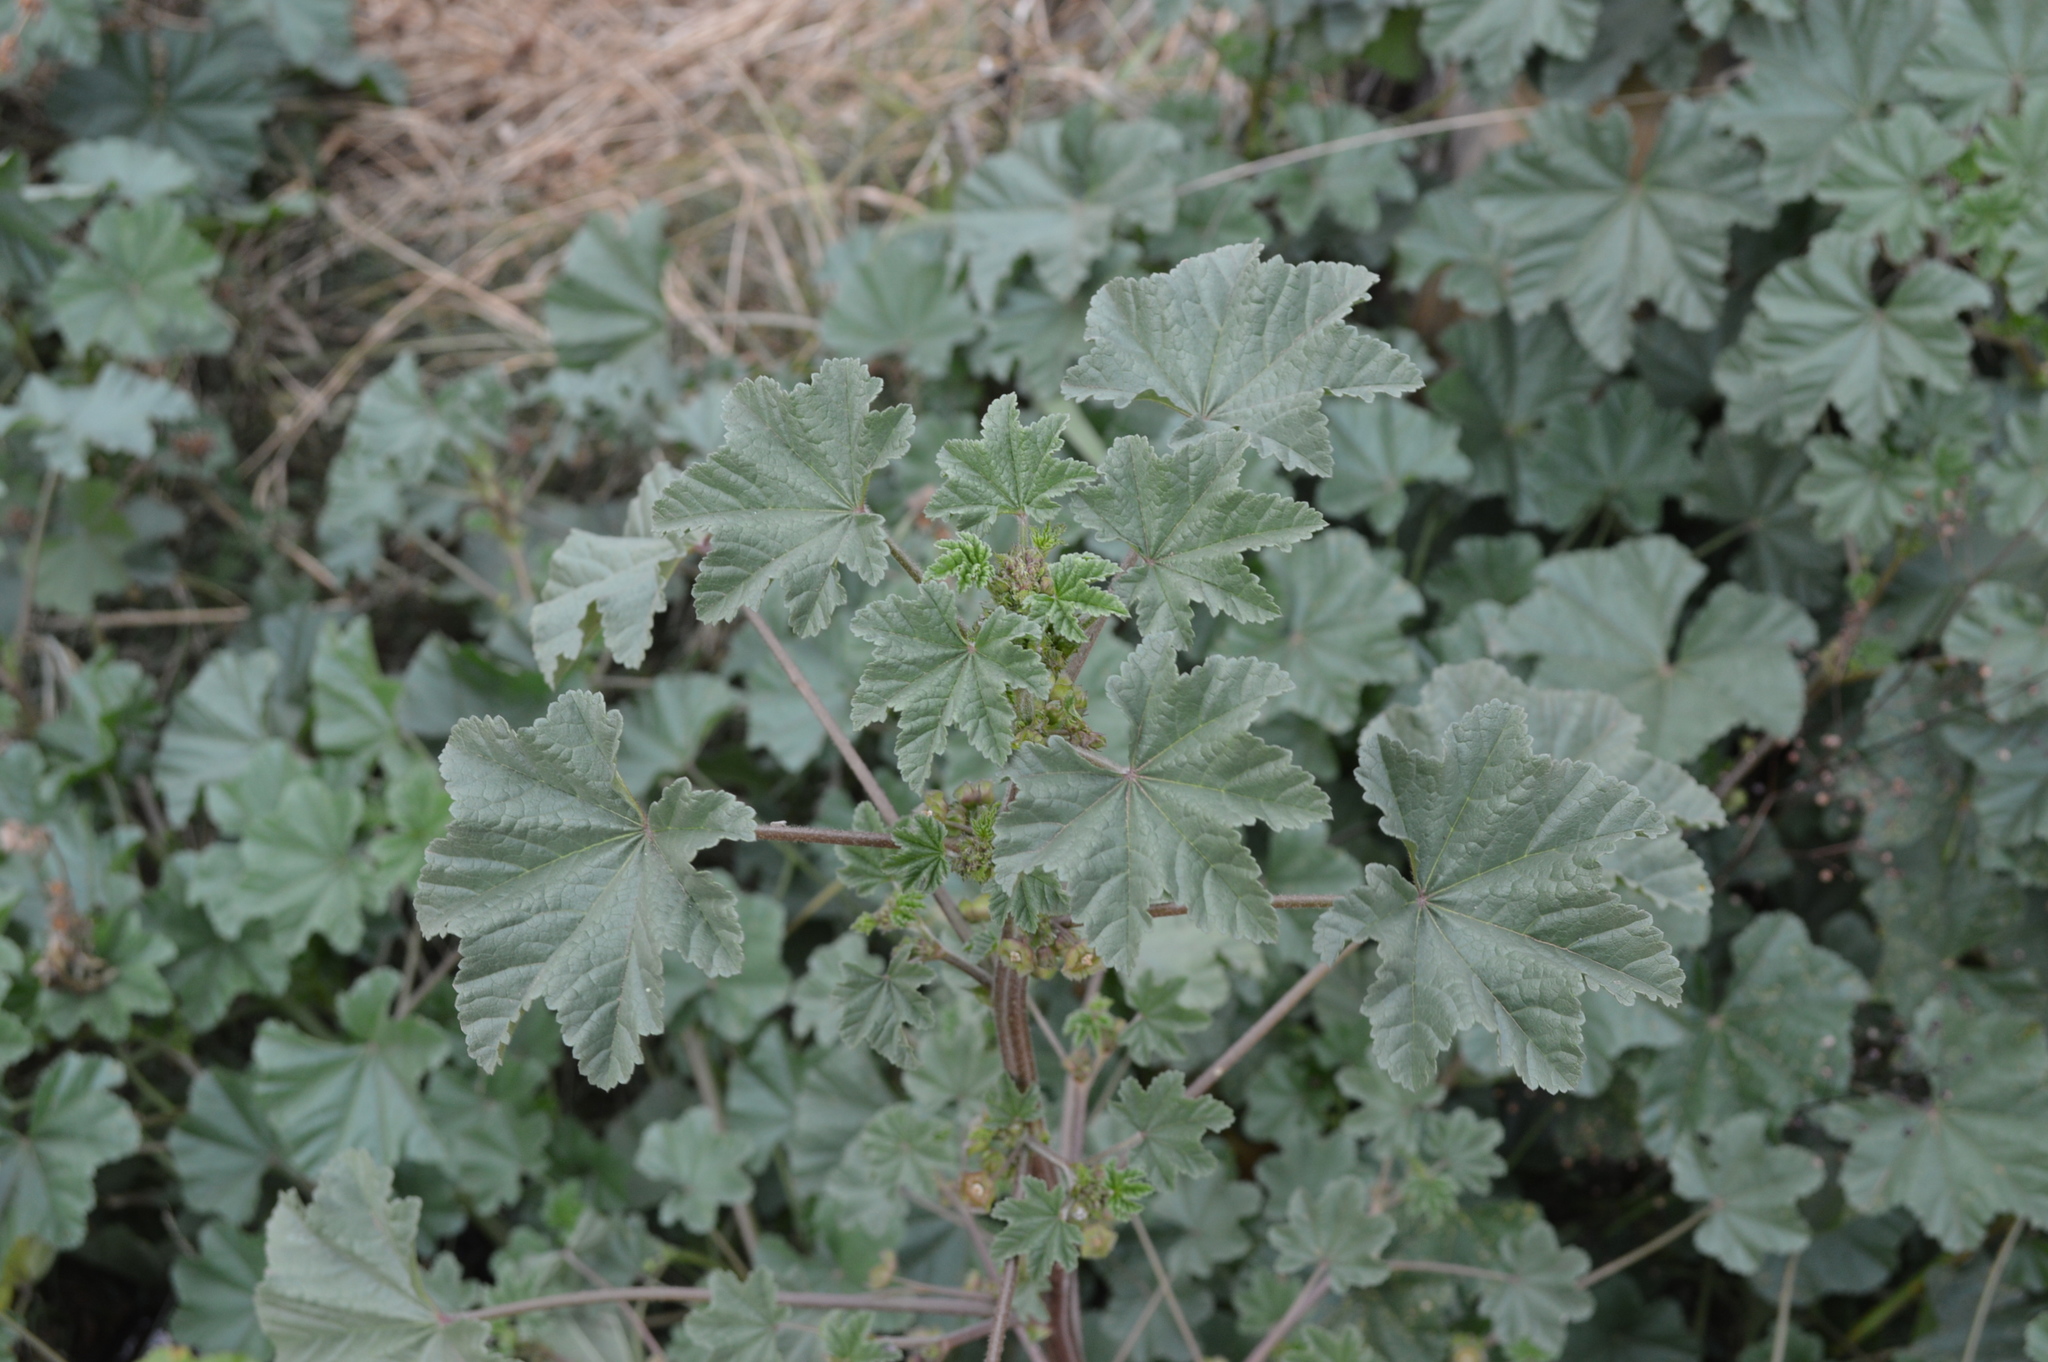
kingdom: Plantae
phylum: Tracheophyta
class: Magnoliopsida
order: Malvales
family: Malvaceae
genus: Malva
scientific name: Malva parviflora
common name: Least mallow
